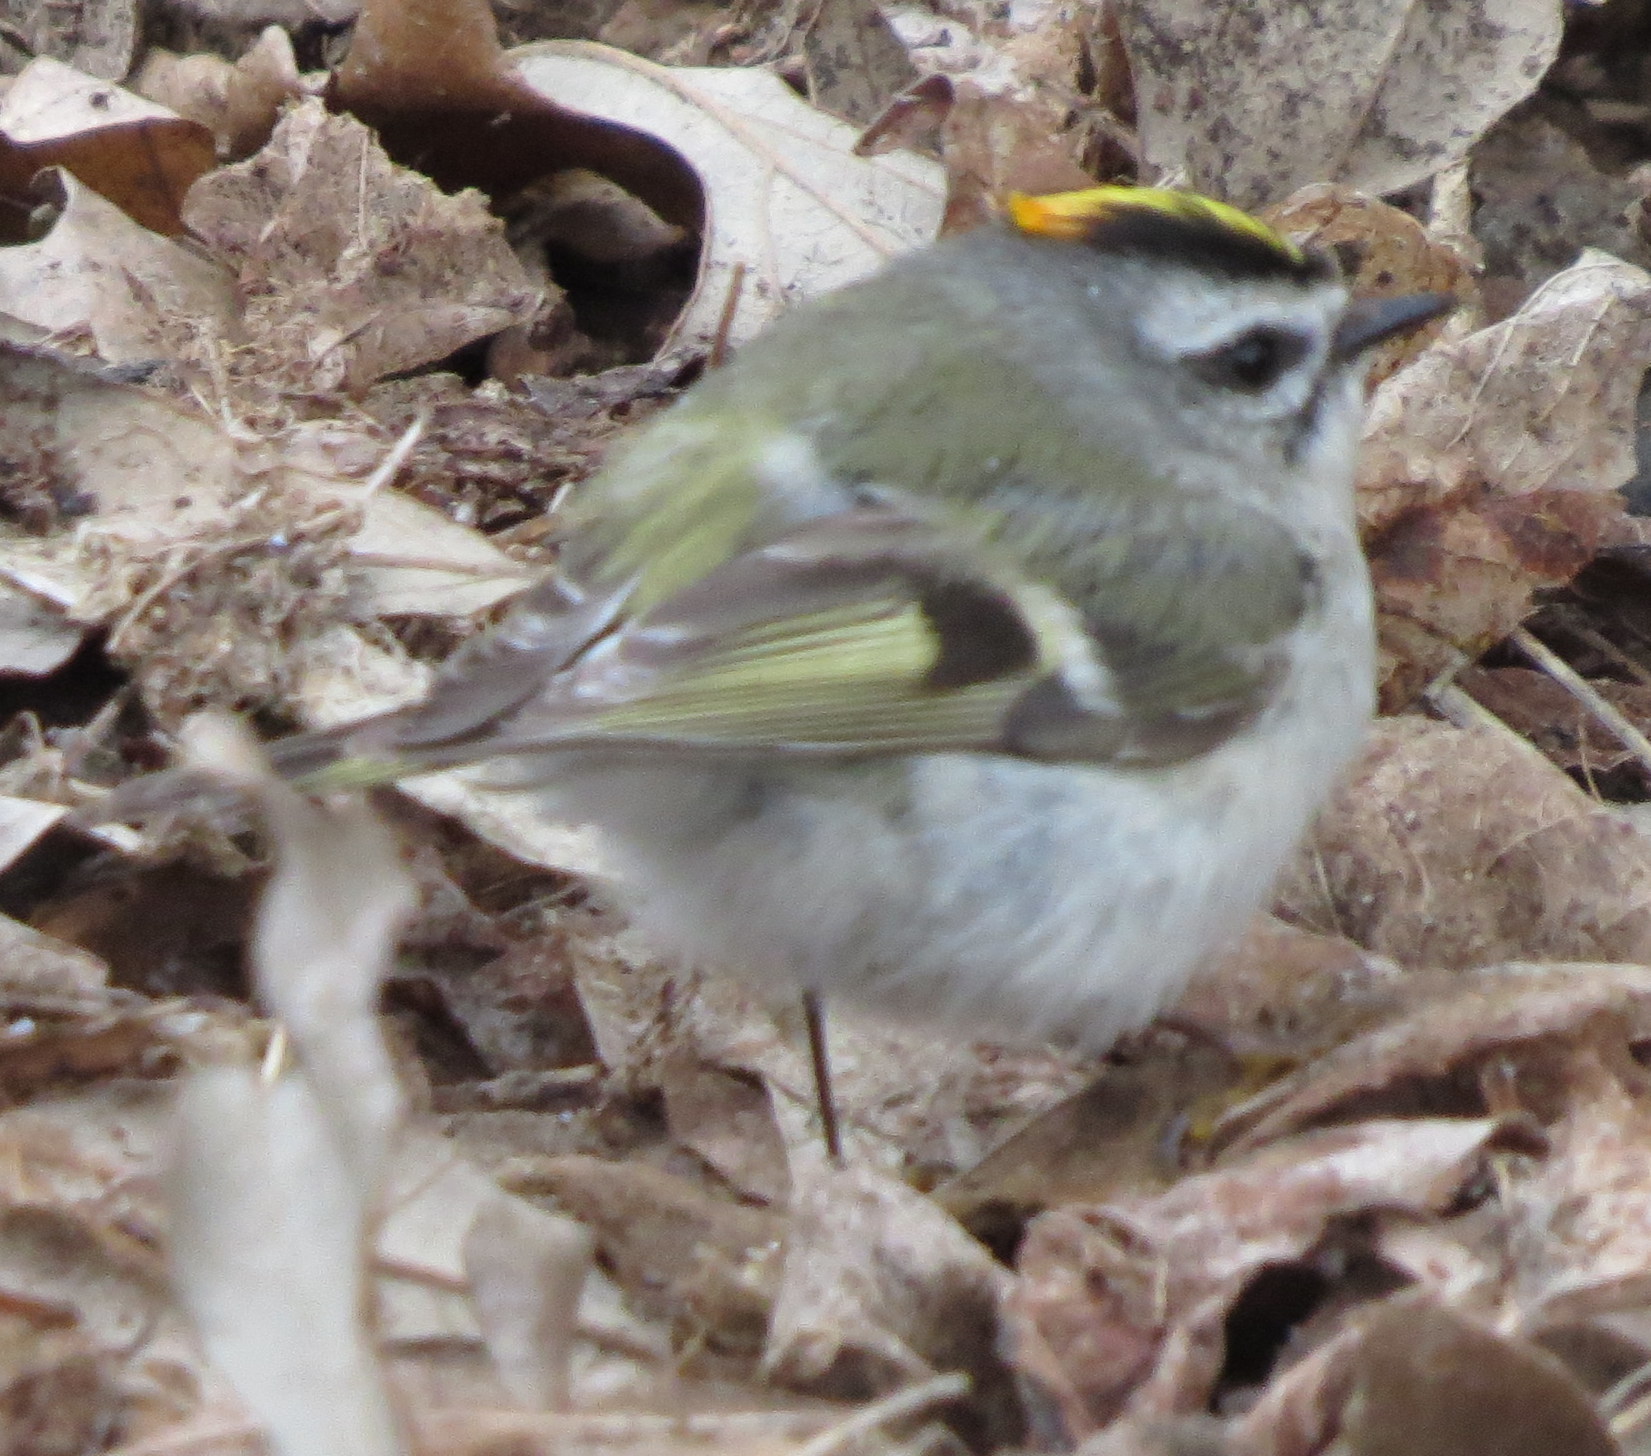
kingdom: Animalia
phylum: Chordata
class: Aves
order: Passeriformes
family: Regulidae
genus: Regulus
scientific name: Regulus satrapa
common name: Golden-crowned kinglet
